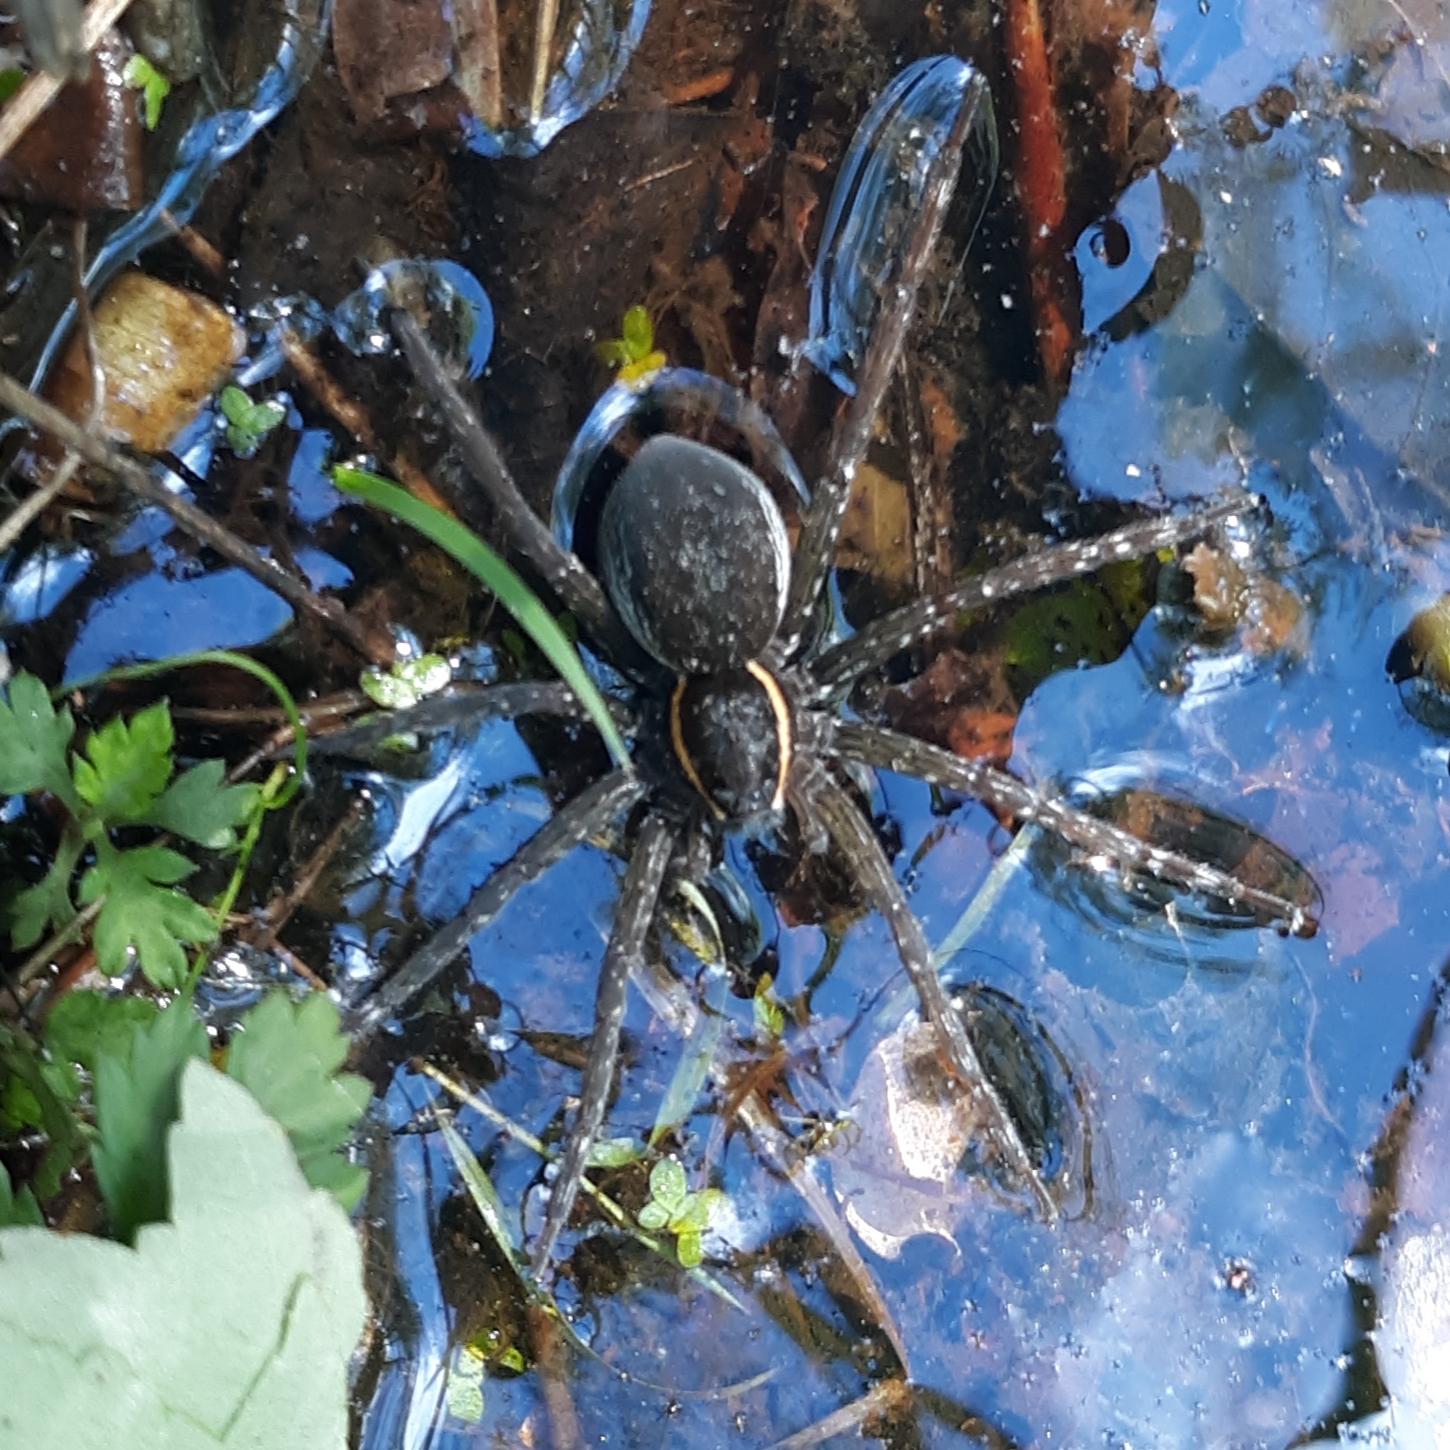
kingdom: Animalia
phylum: Arthropoda
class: Arachnida
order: Araneae
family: Pisauridae
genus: Dolomedes
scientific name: Dolomedes triton
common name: Six-spotted fishing spider
